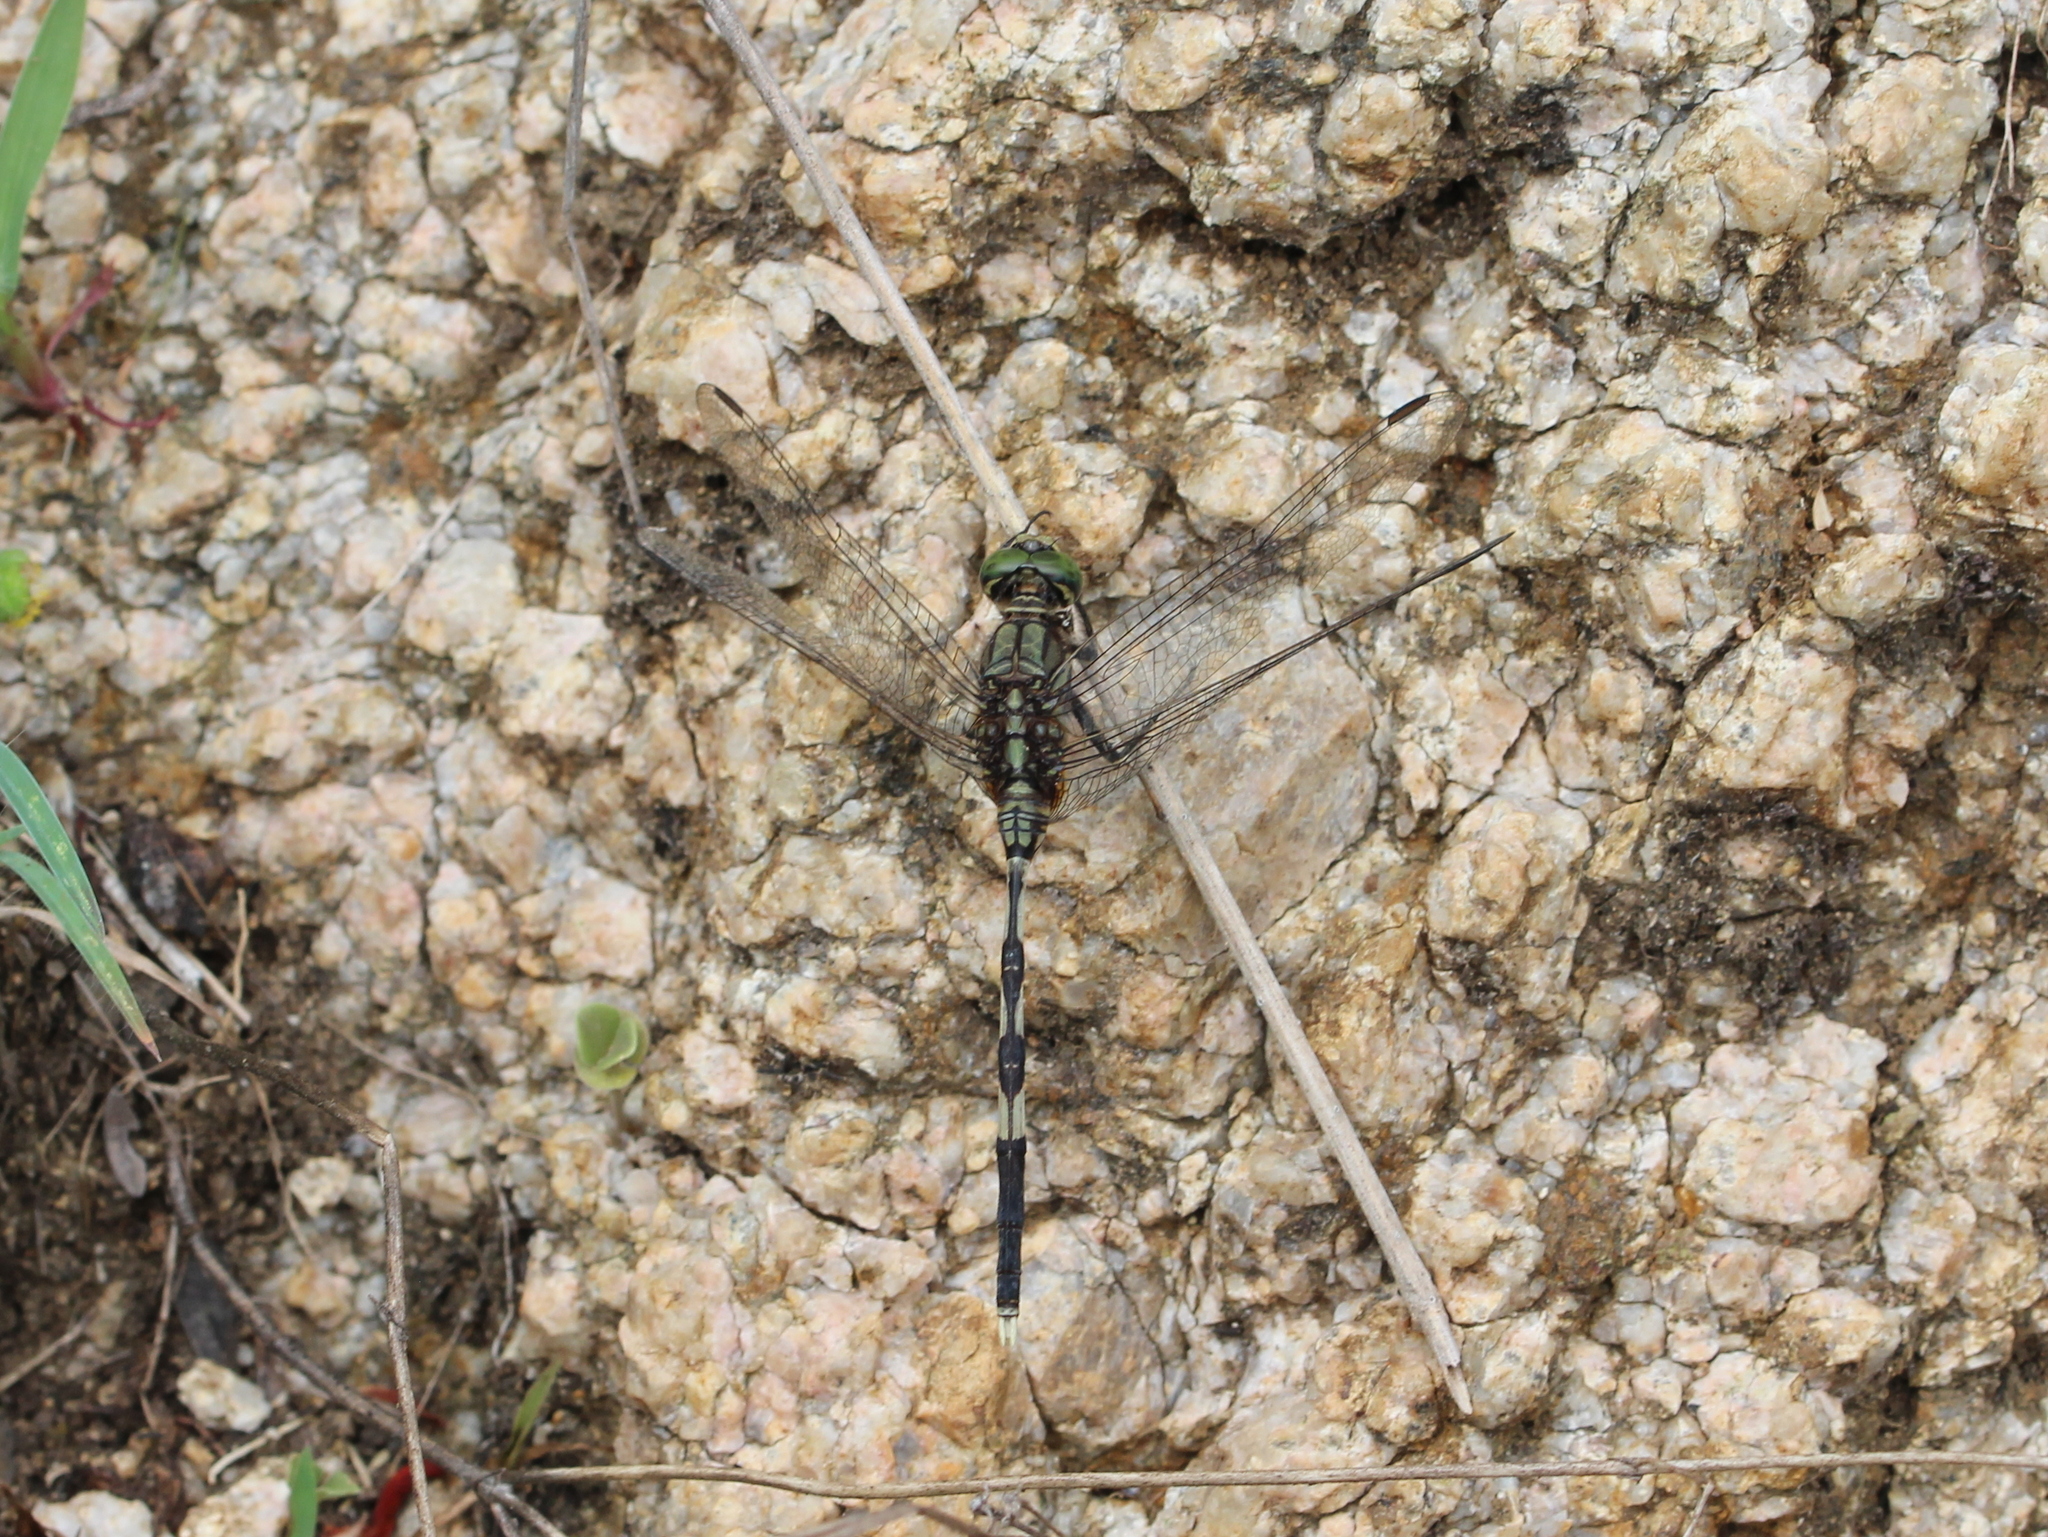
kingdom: Animalia
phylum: Arthropoda
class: Insecta
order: Odonata
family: Libellulidae
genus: Orthetrum
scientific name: Orthetrum sabina
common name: Slender skimmer
